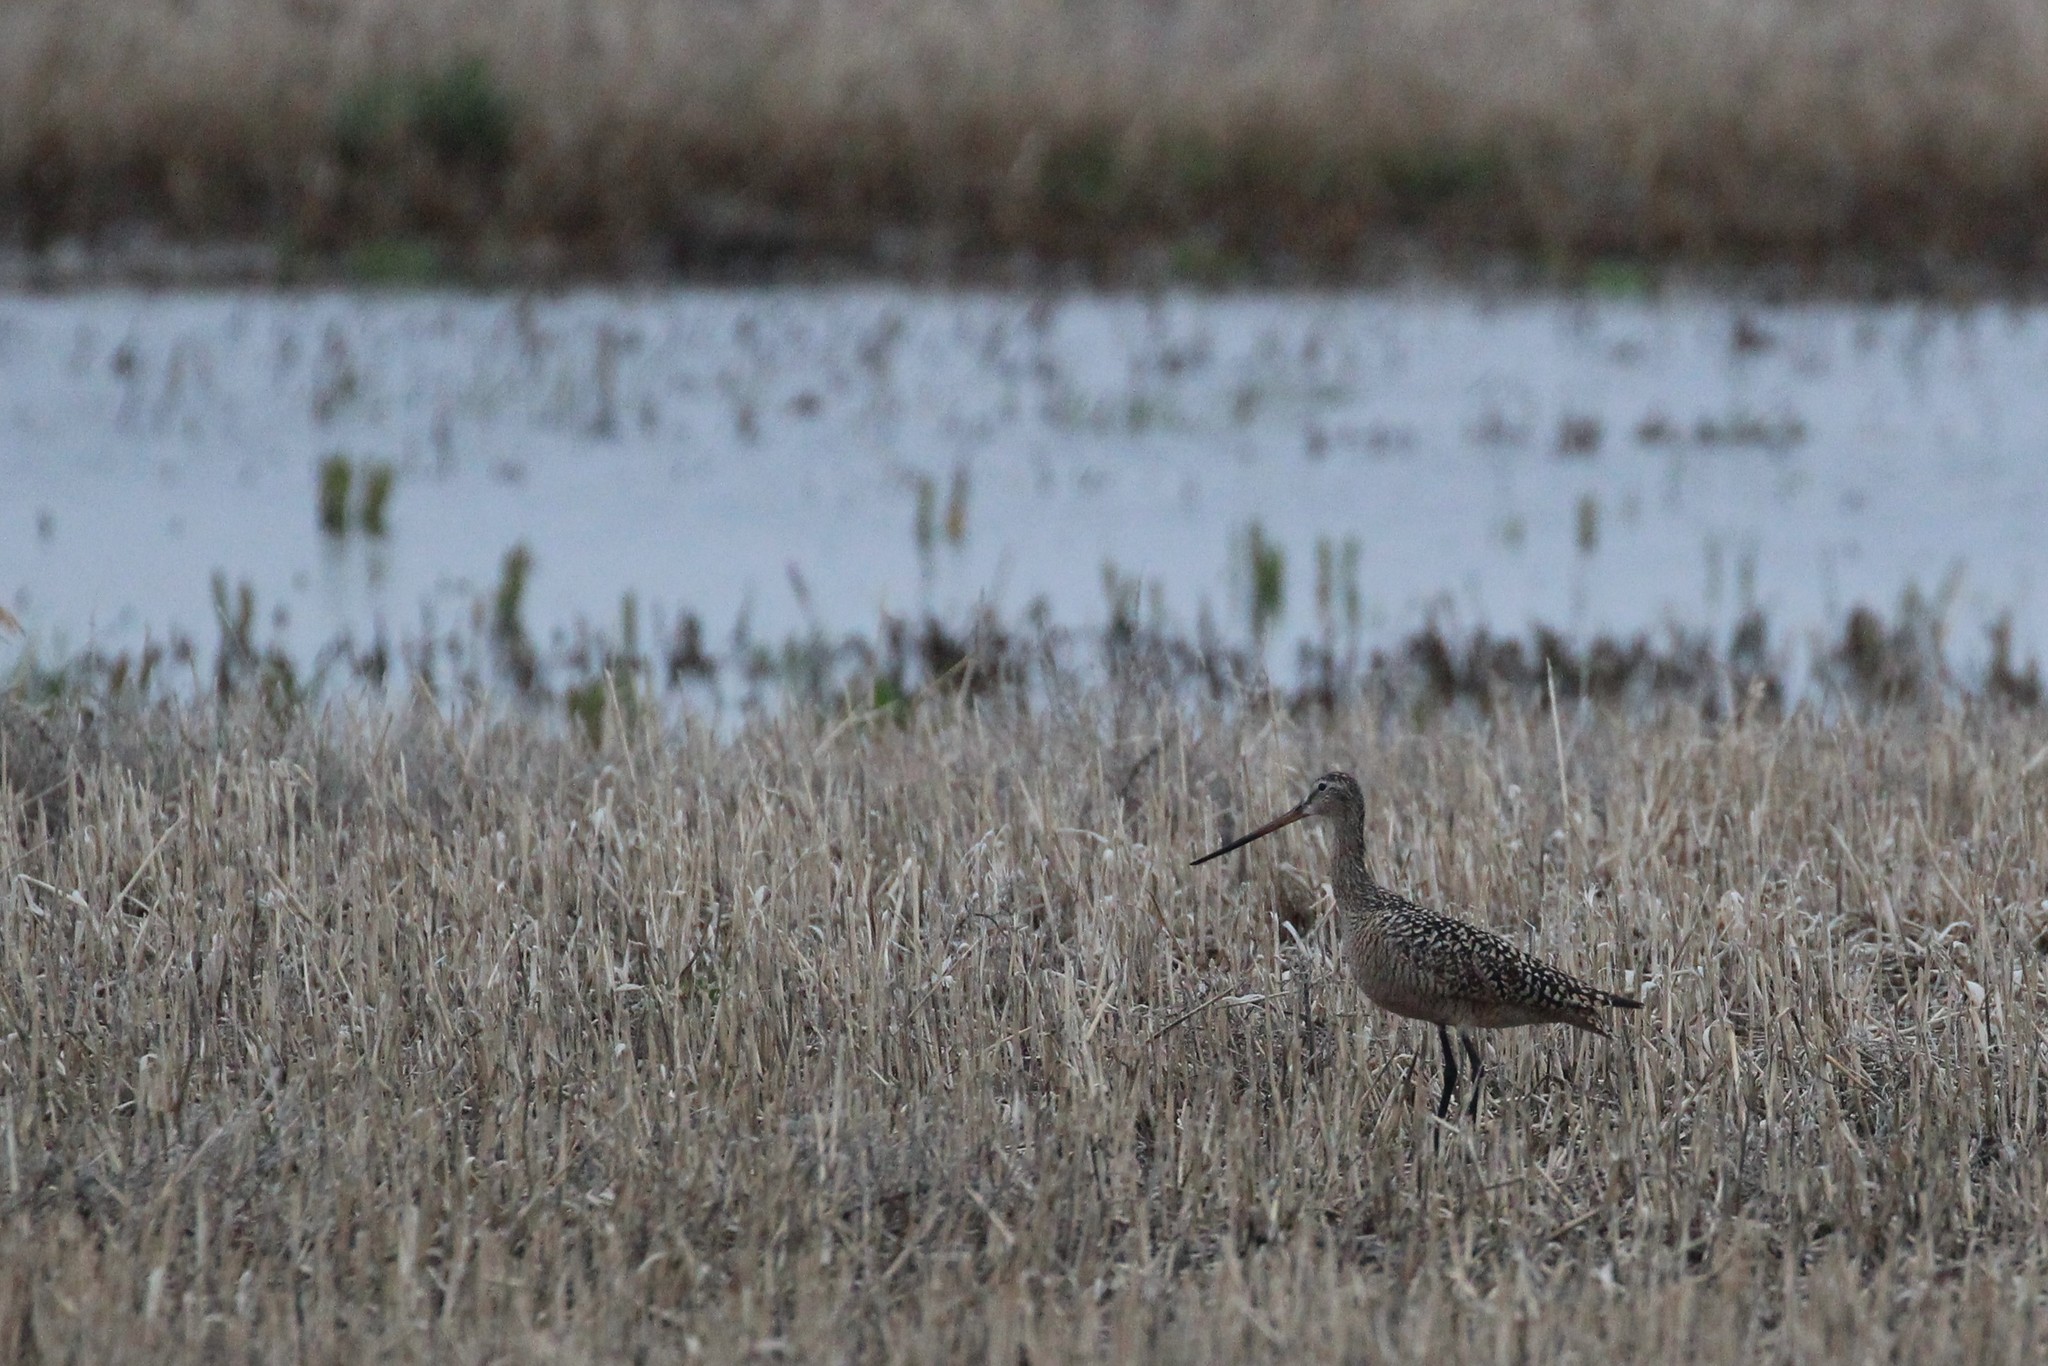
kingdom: Animalia
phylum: Chordata
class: Aves
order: Charadriiformes
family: Scolopacidae
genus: Limosa
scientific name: Limosa fedoa
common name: Marbled godwit
